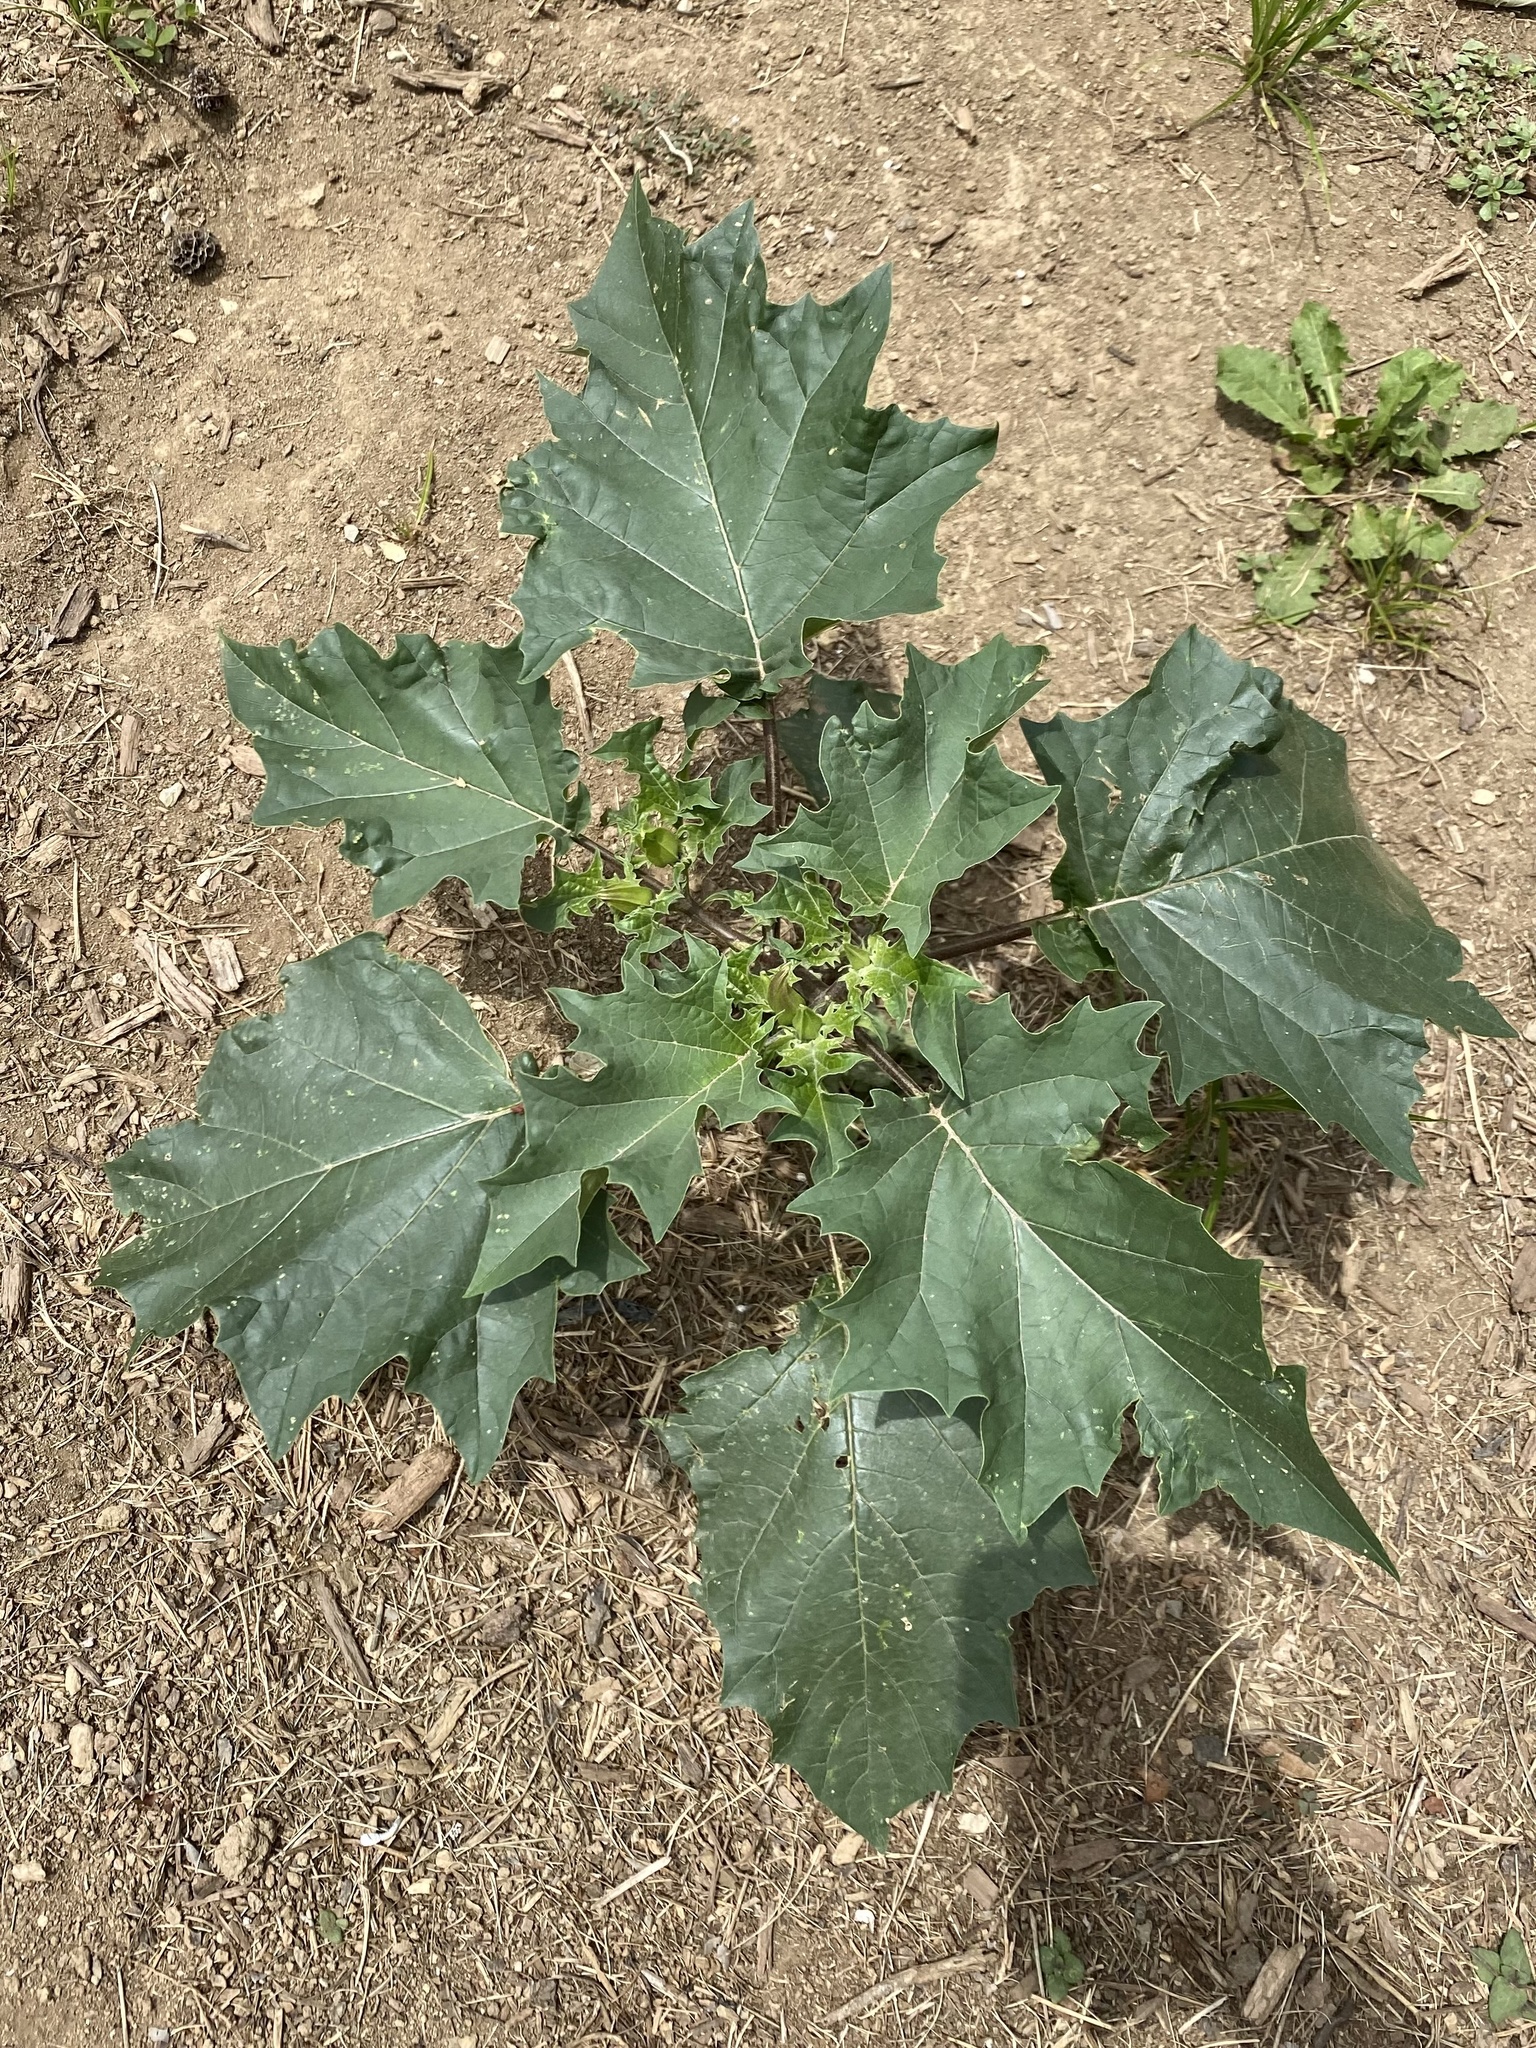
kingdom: Plantae
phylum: Tracheophyta
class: Magnoliopsida
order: Solanales
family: Solanaceae
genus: Datura
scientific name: Datura stramonium
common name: Thorn-apple
